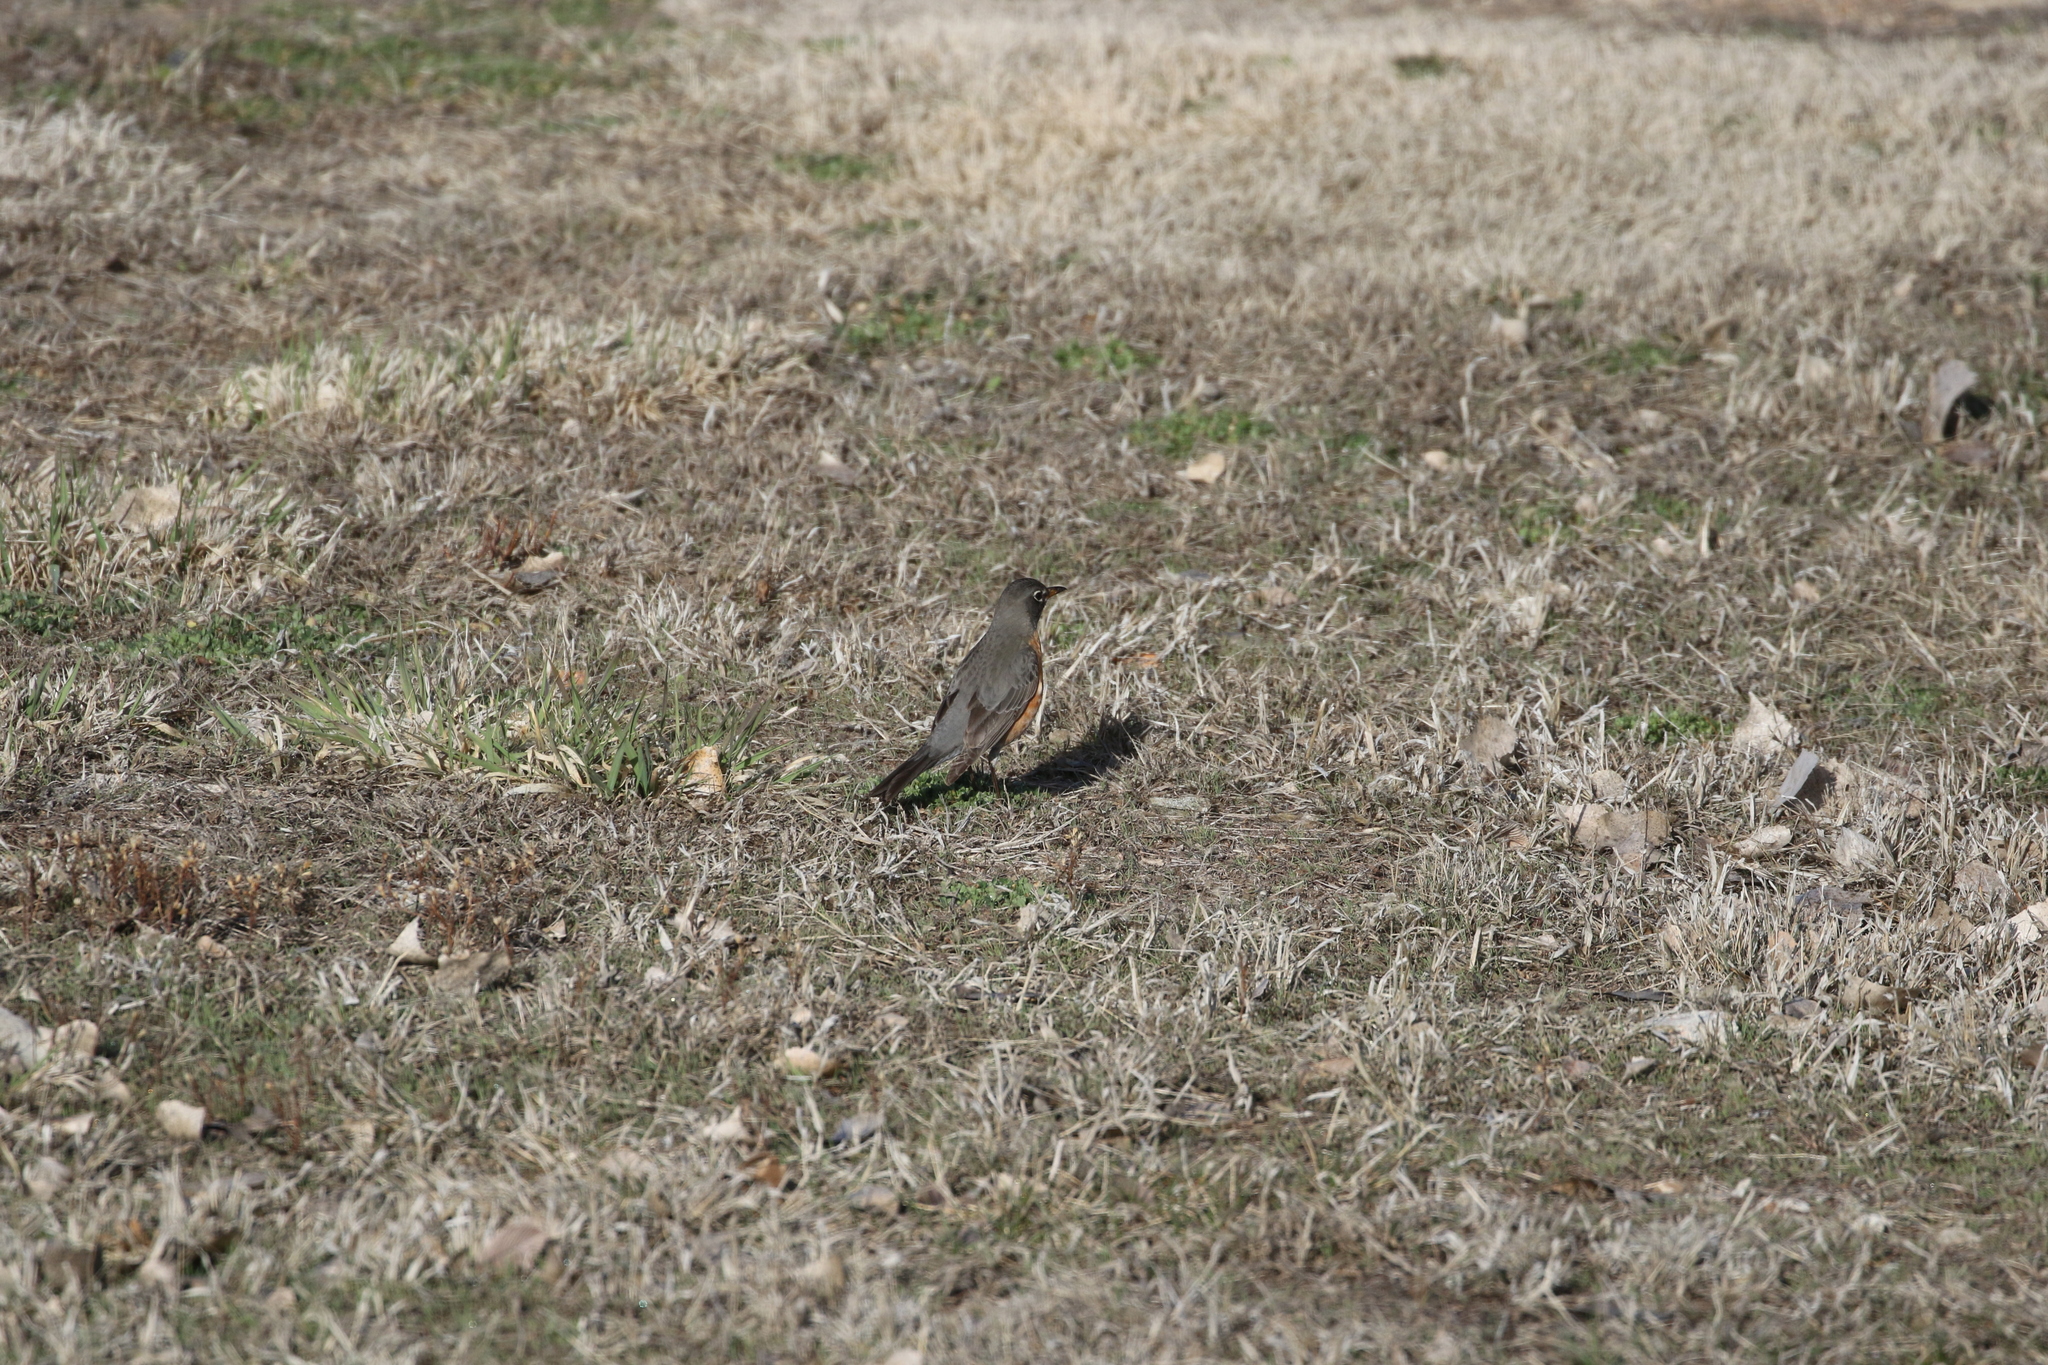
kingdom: Animalia
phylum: Chordata
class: Aves
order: Passeriformes
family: Turdidae
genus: Turdus
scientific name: Turdus migratorius
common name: American robin
